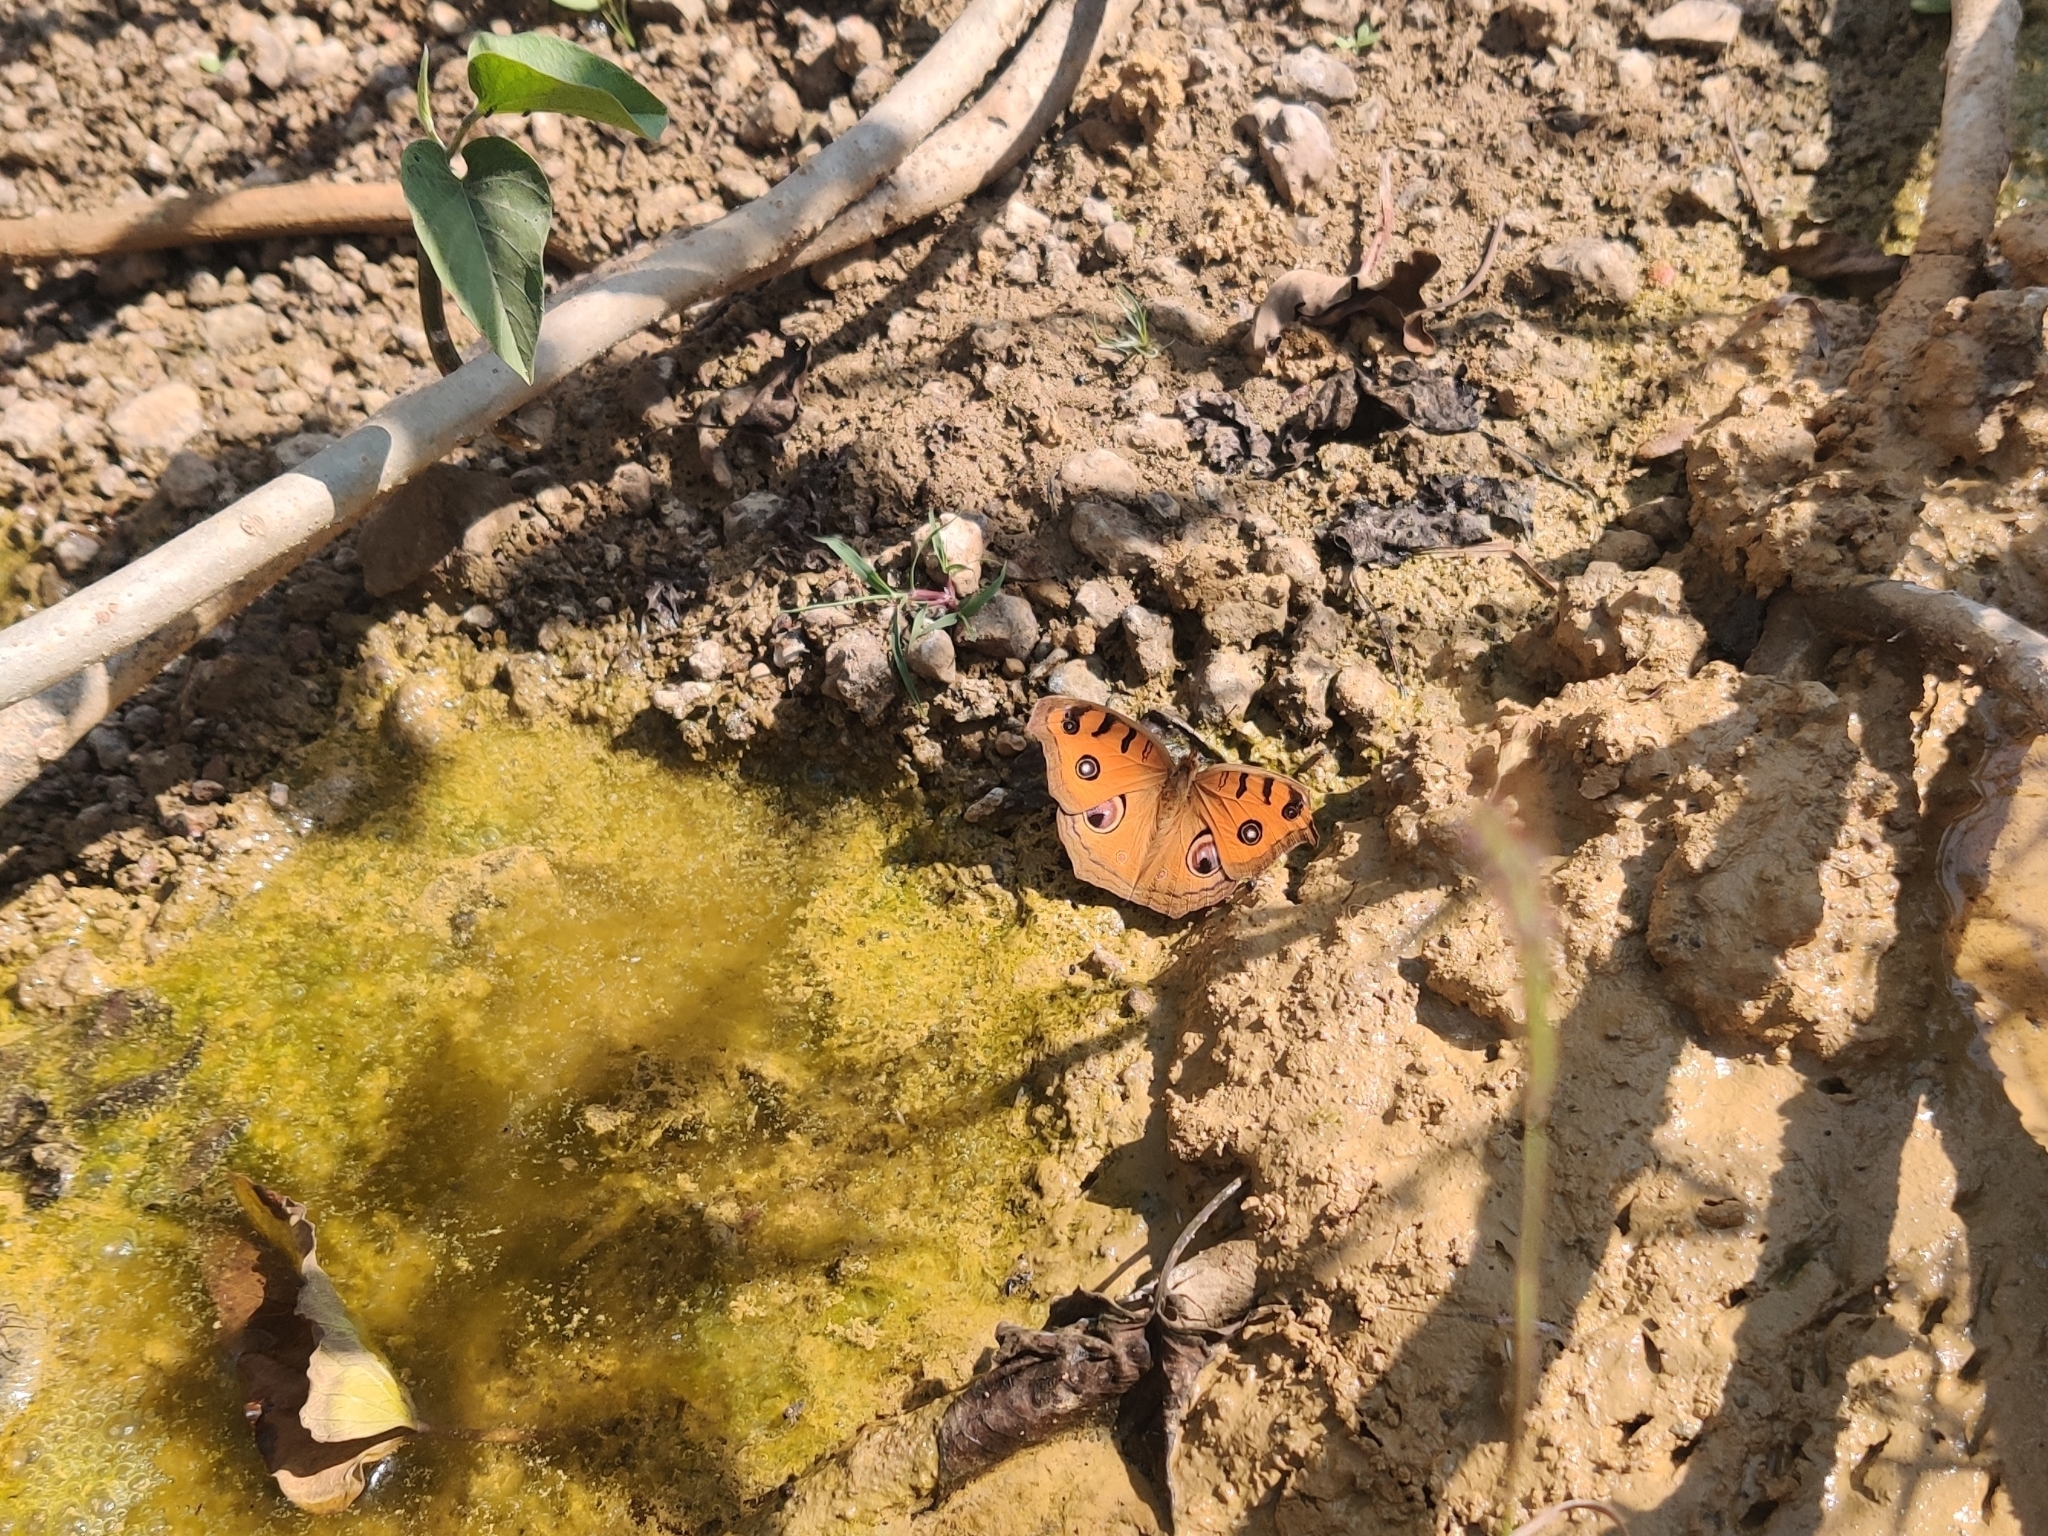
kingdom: Animalia
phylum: Arthropoda
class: Insecta
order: Lepidoptera
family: Nymphalidae
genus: Junonia
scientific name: Junonia almana
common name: Peacock pansy
